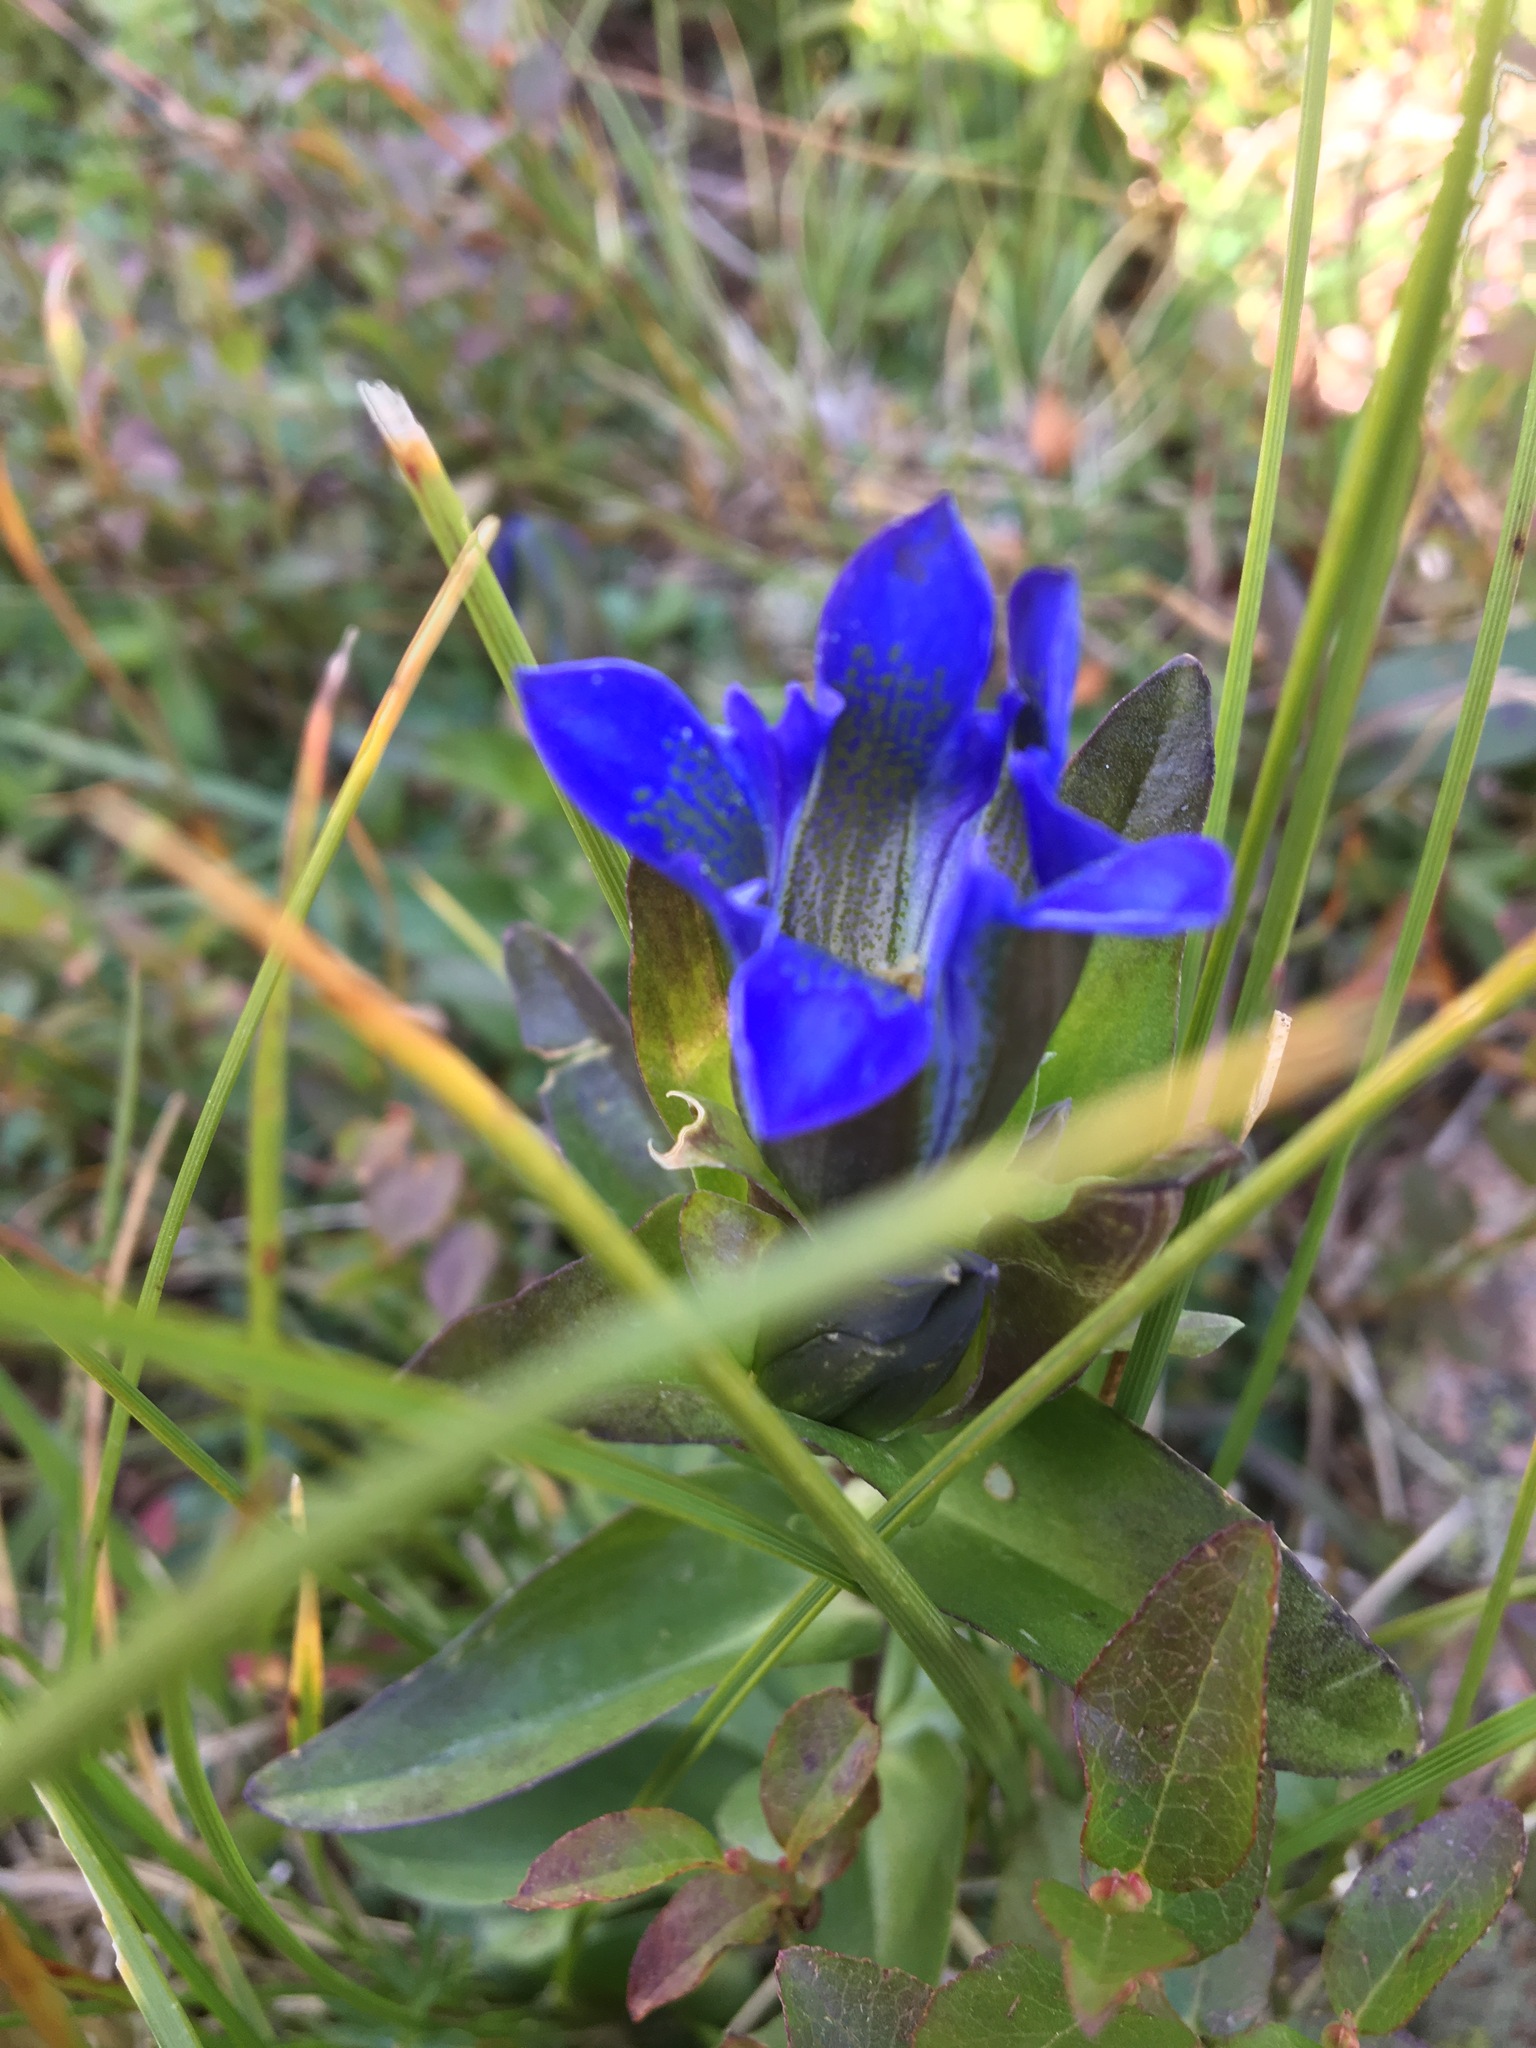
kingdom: Plantae
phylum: Tracheophyta
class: Magnoliopsida
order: Gentianales
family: Gentianaceae
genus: Gentiana
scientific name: Gentiana parryi
